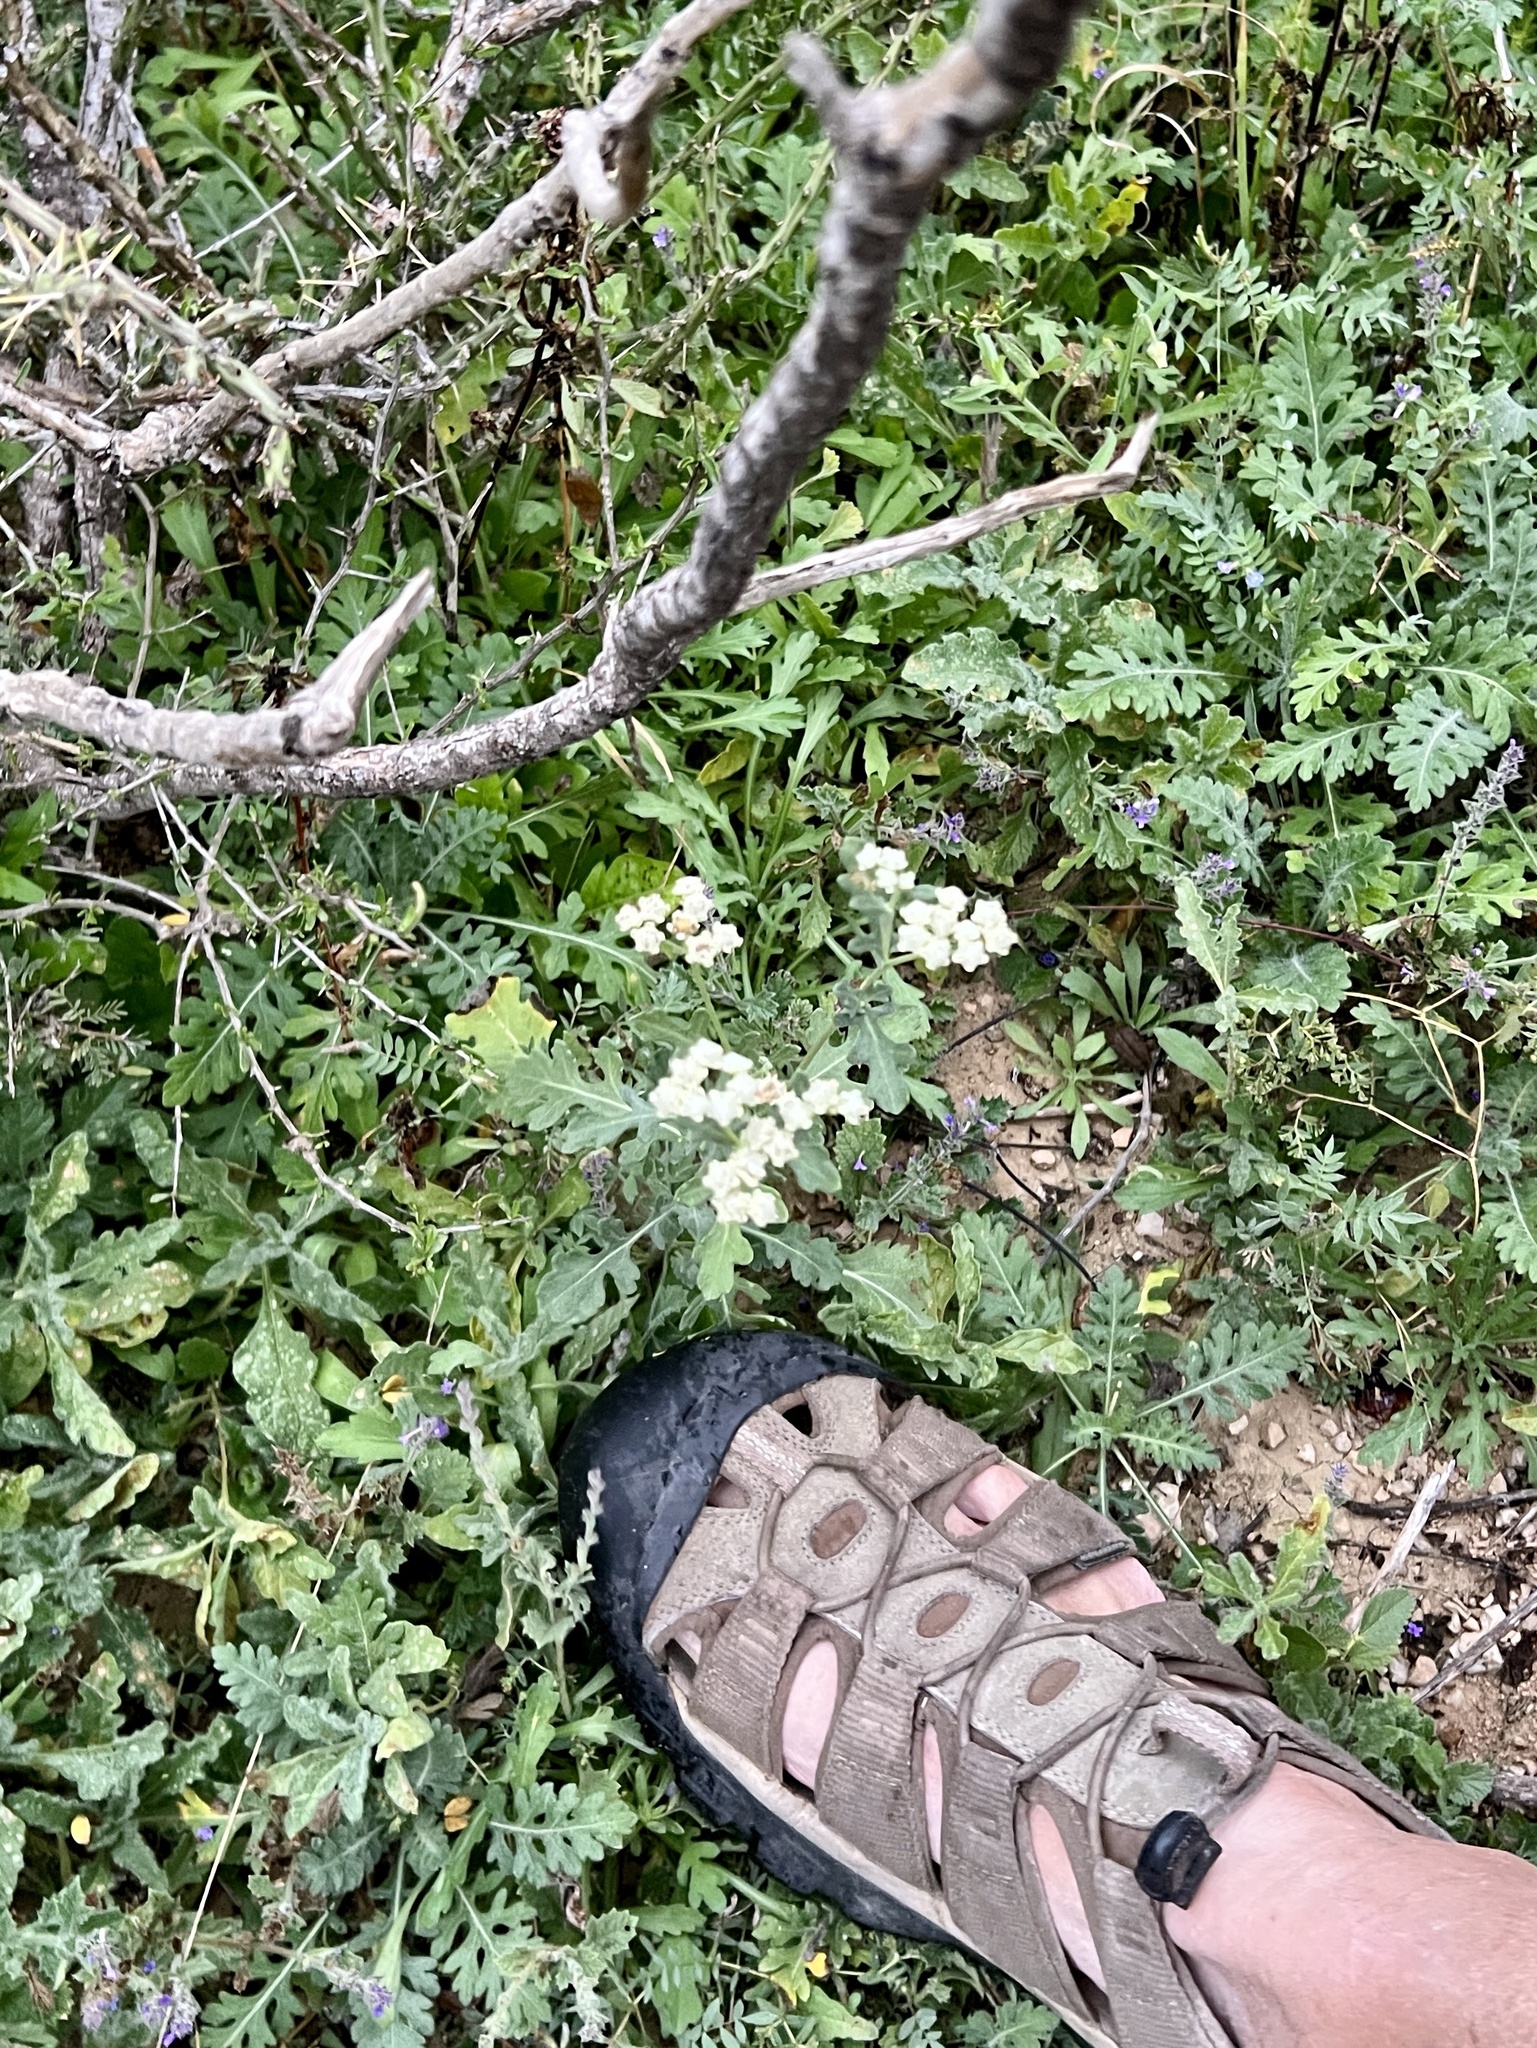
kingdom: Plantae
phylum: Tracheophyta
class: Magnoliopsida
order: Asterales
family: Asteraceae
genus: Parthenium
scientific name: Parthenium confertum
